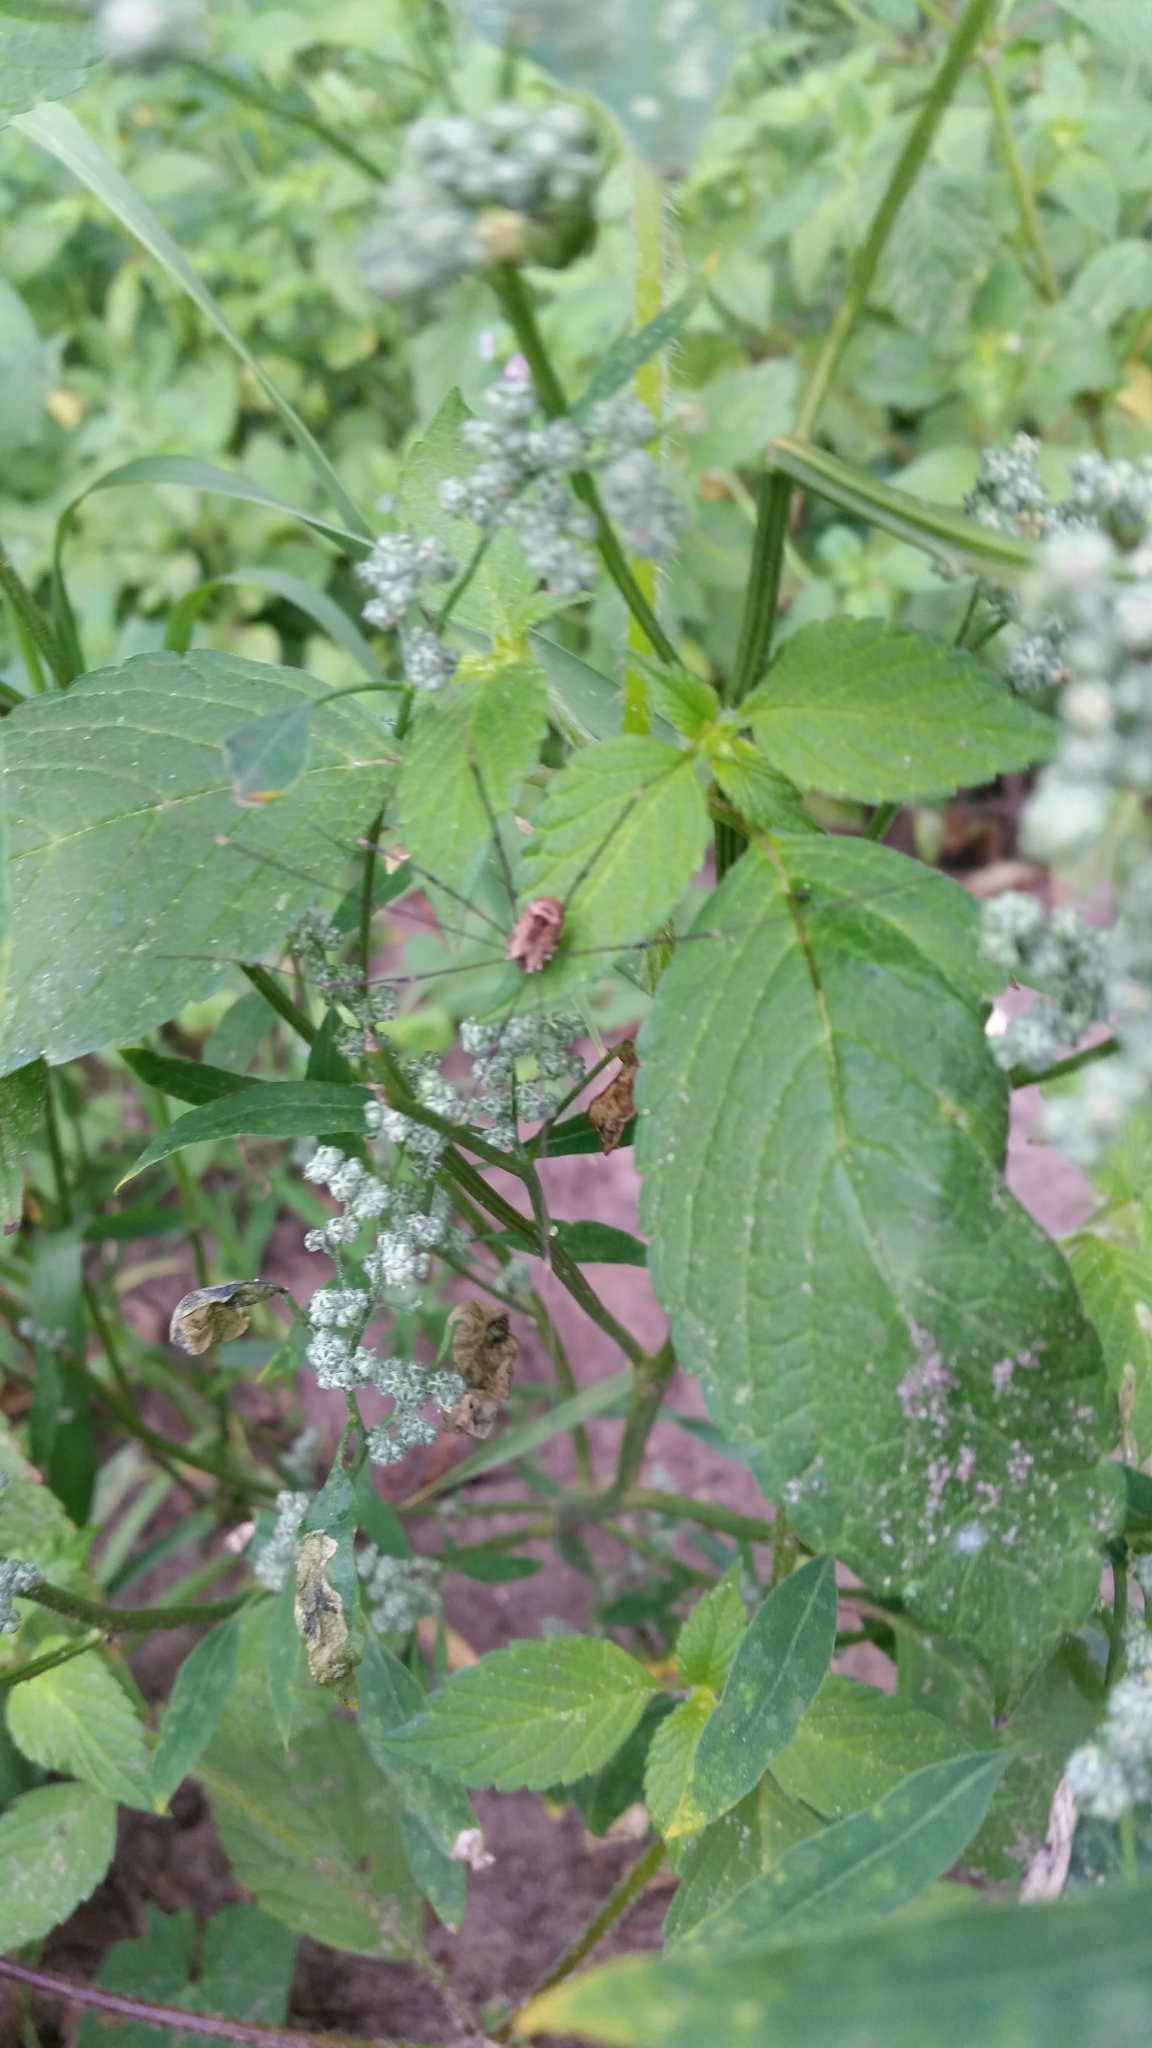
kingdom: Animalia
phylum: Arthropoda
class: Arachnida
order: Opiliones
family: Sclerosomatidae
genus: Leiobunum
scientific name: Leiobunum rotundum
